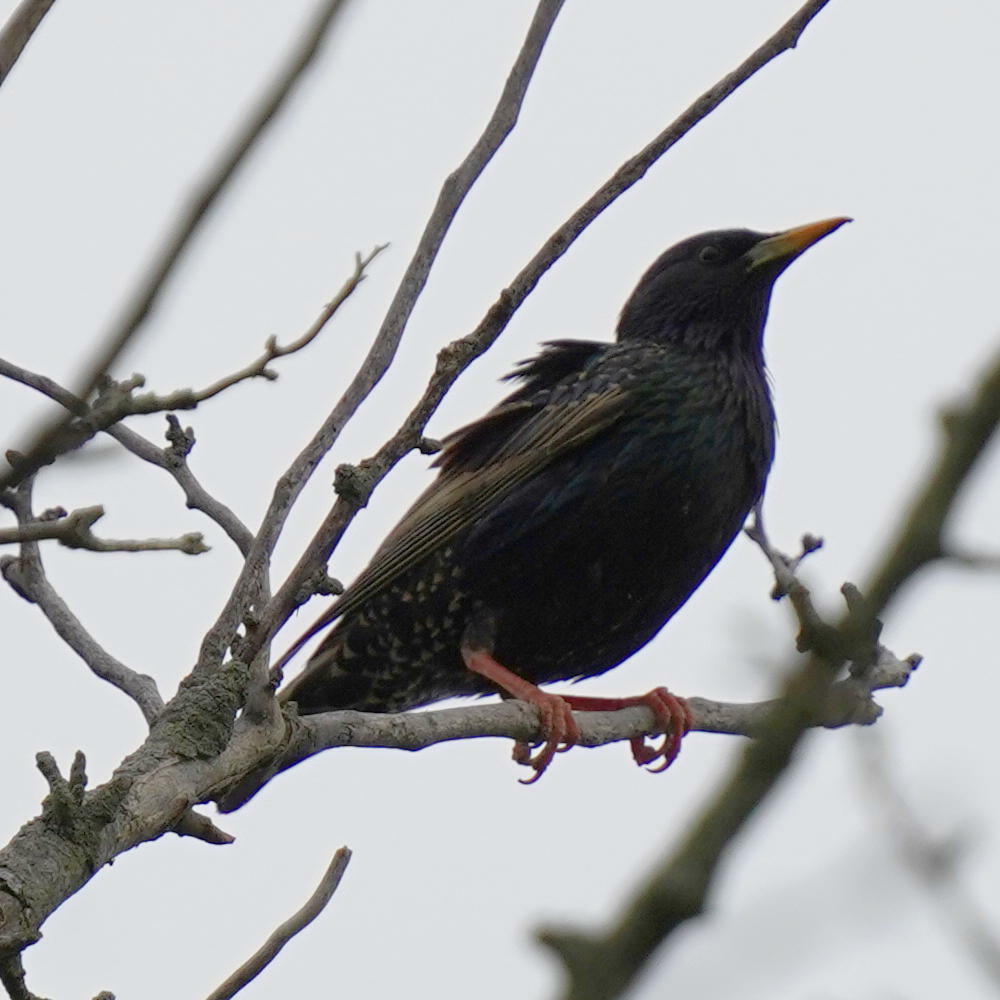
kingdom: Animalia
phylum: Chordata
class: Aves
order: Passeriformes
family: Sturnidae
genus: Sturnus
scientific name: Sturnus vulgaris
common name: Common starling
